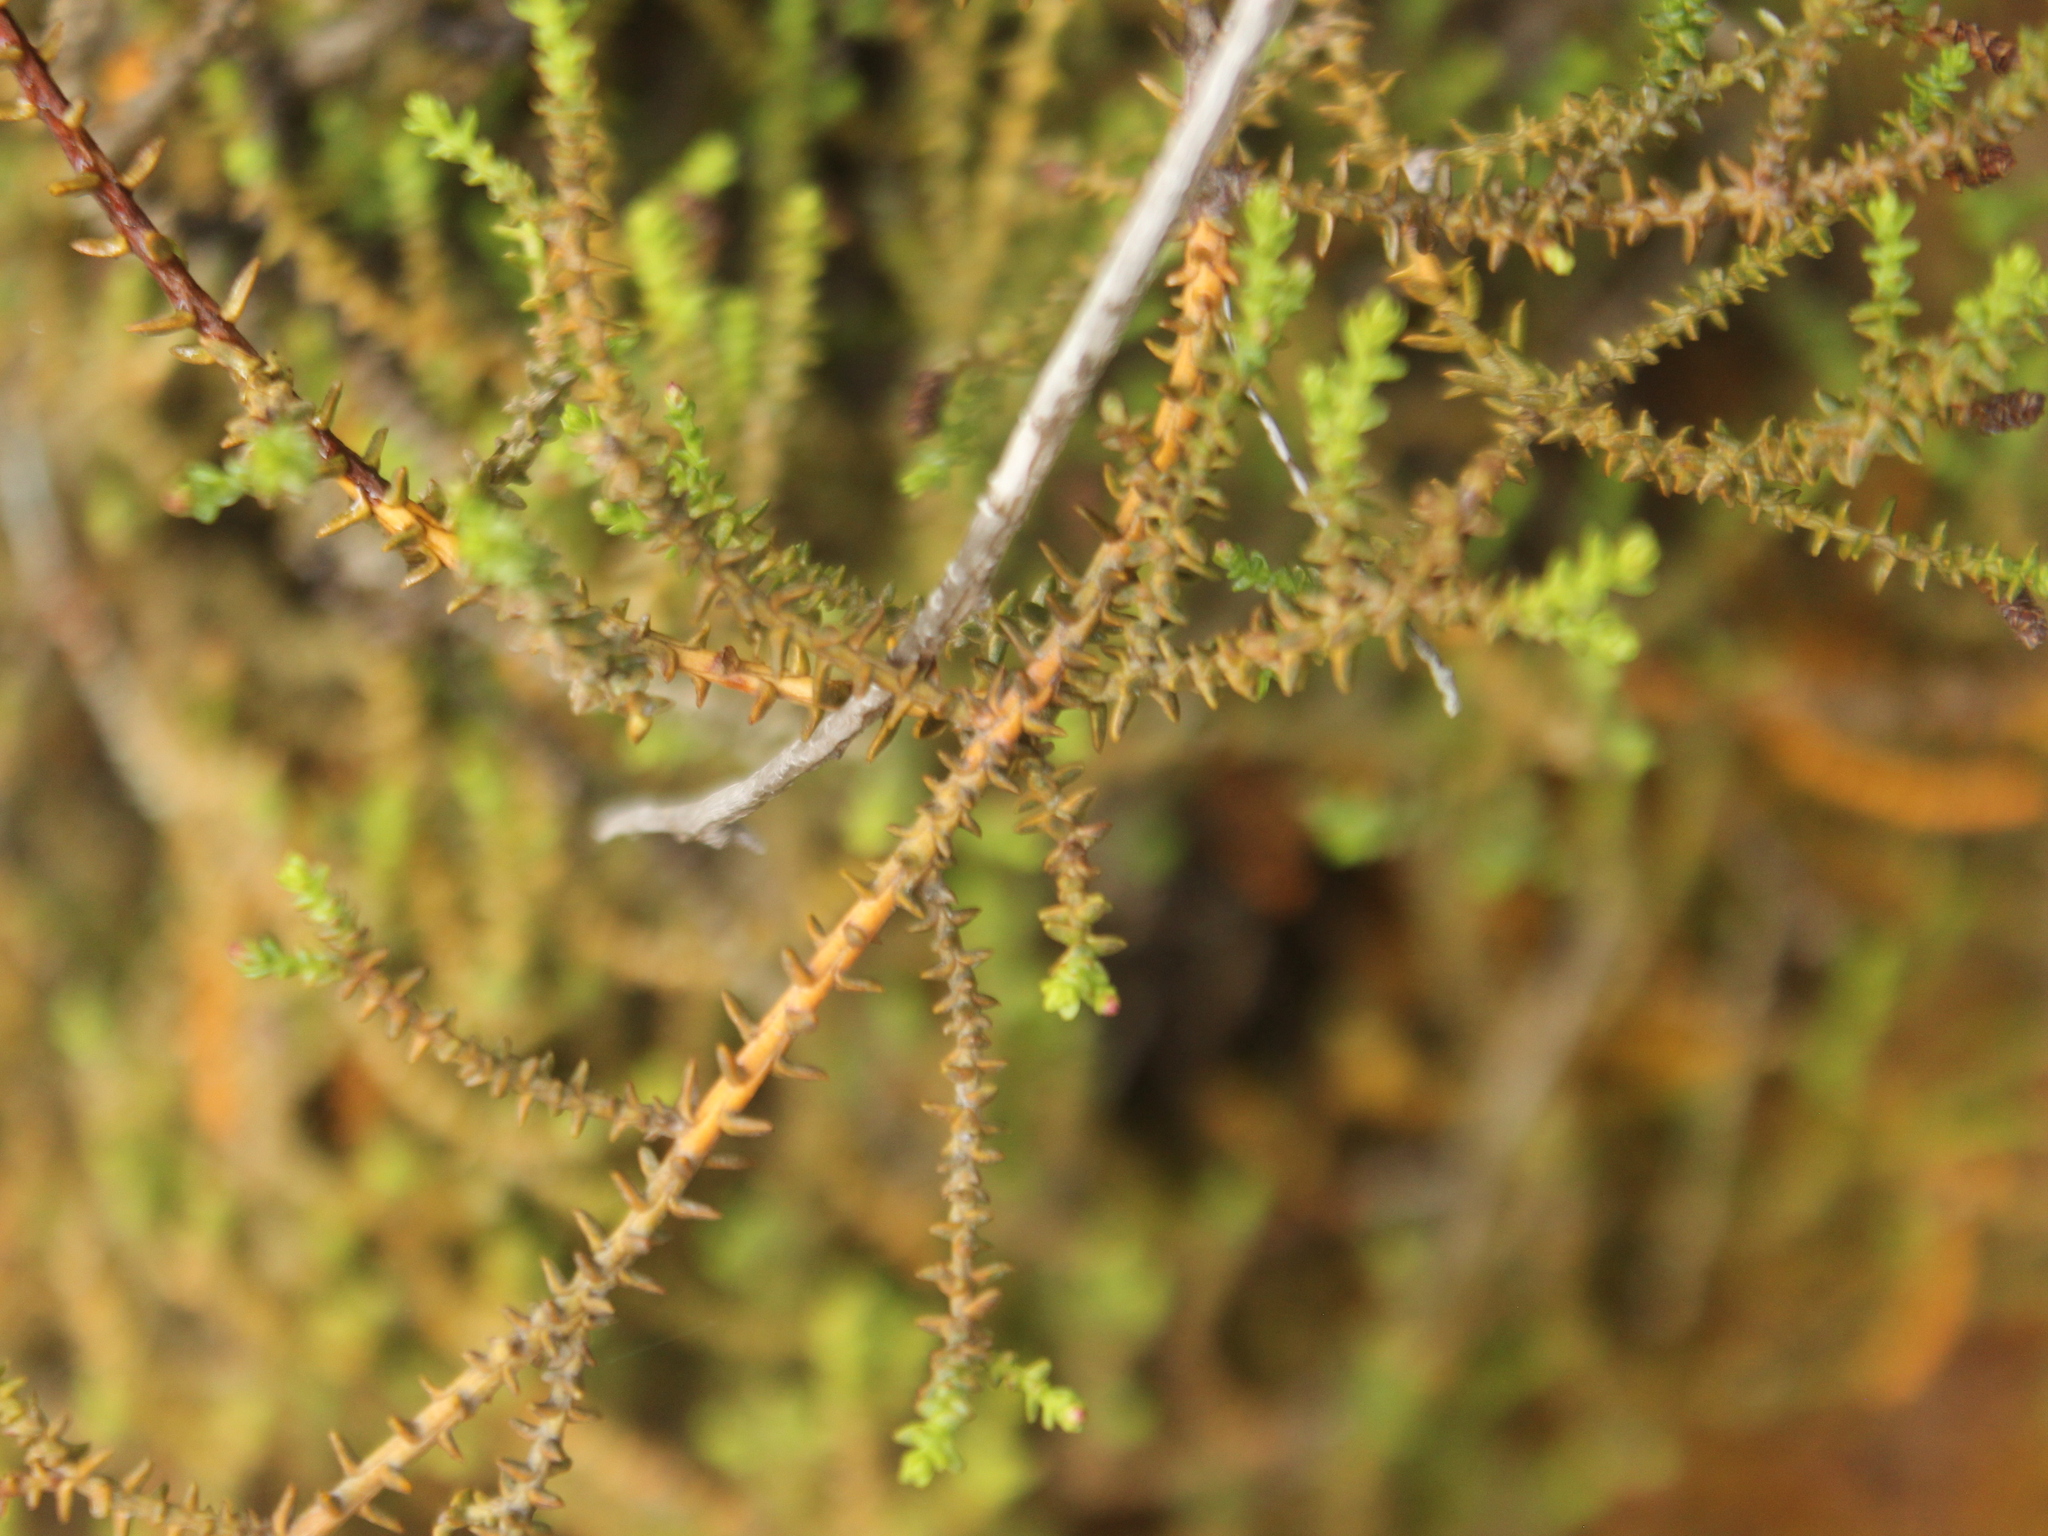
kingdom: Plantae
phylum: Tracheophyta
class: Pinopsida
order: Pinales
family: Podocarpaceae
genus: Lepidothamnus
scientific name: Lepidothamnus laxifolius
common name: Pygmy pine
